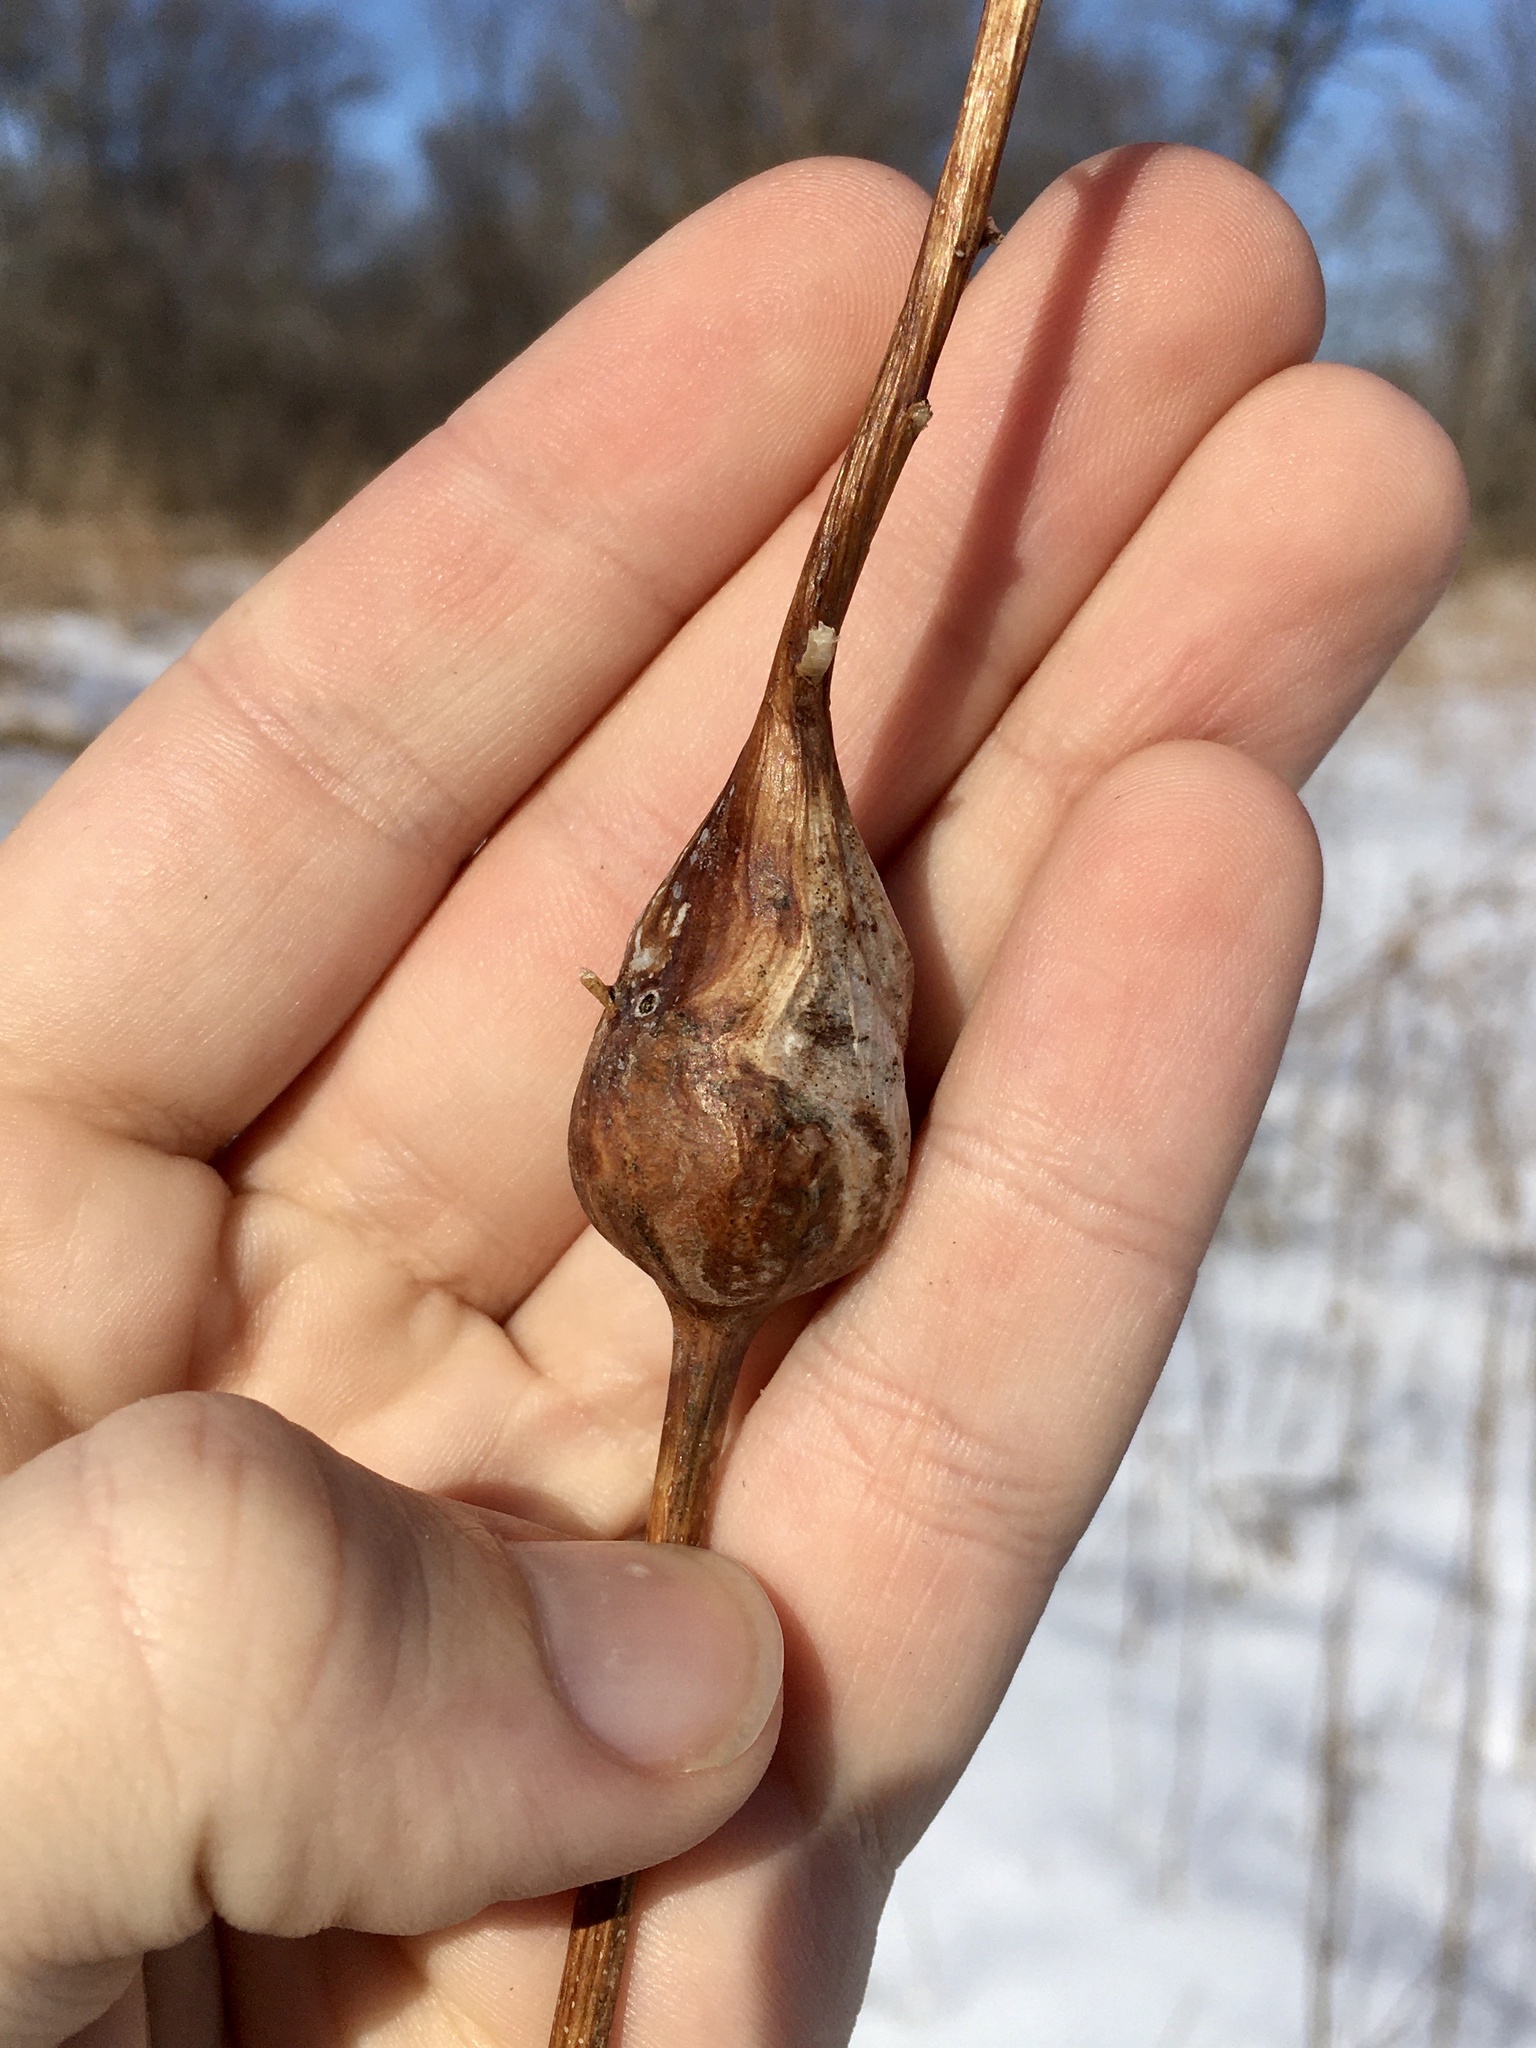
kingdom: Animalia
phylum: Arthropoda
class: Insecta
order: Diptera
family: Tephritidae
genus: Eurosta
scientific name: Eurosta solidaginis
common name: Goldenrod gall fly
